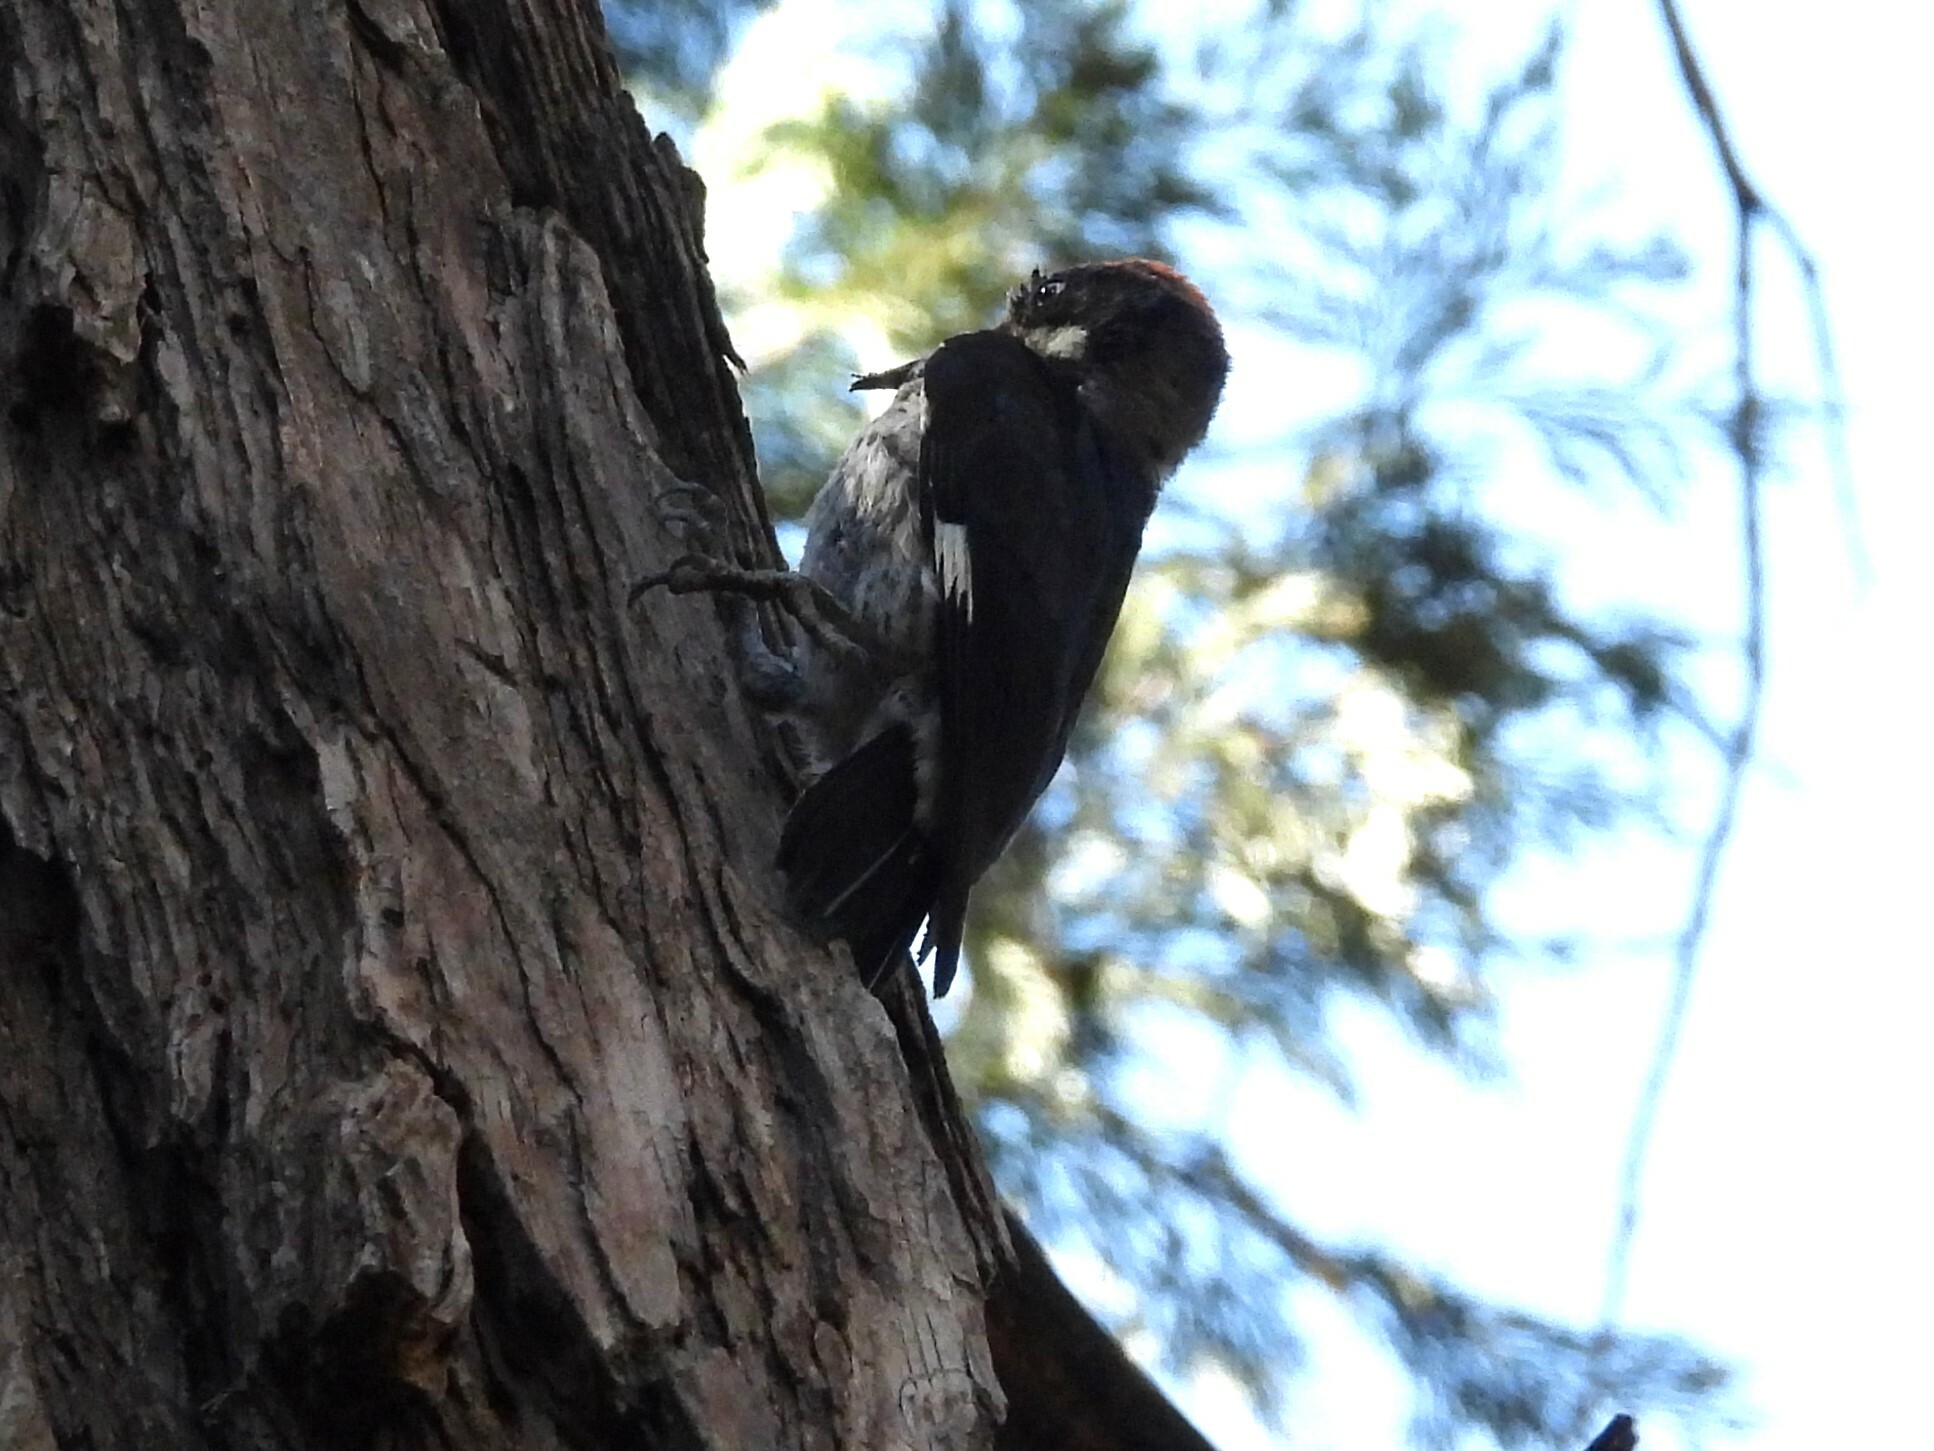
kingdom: Animalia
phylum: Chordata
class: Aves
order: Piciformes
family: Picidae
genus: Melanerpes
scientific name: Melanerpes formicivorus
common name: Acorn woodpecker
